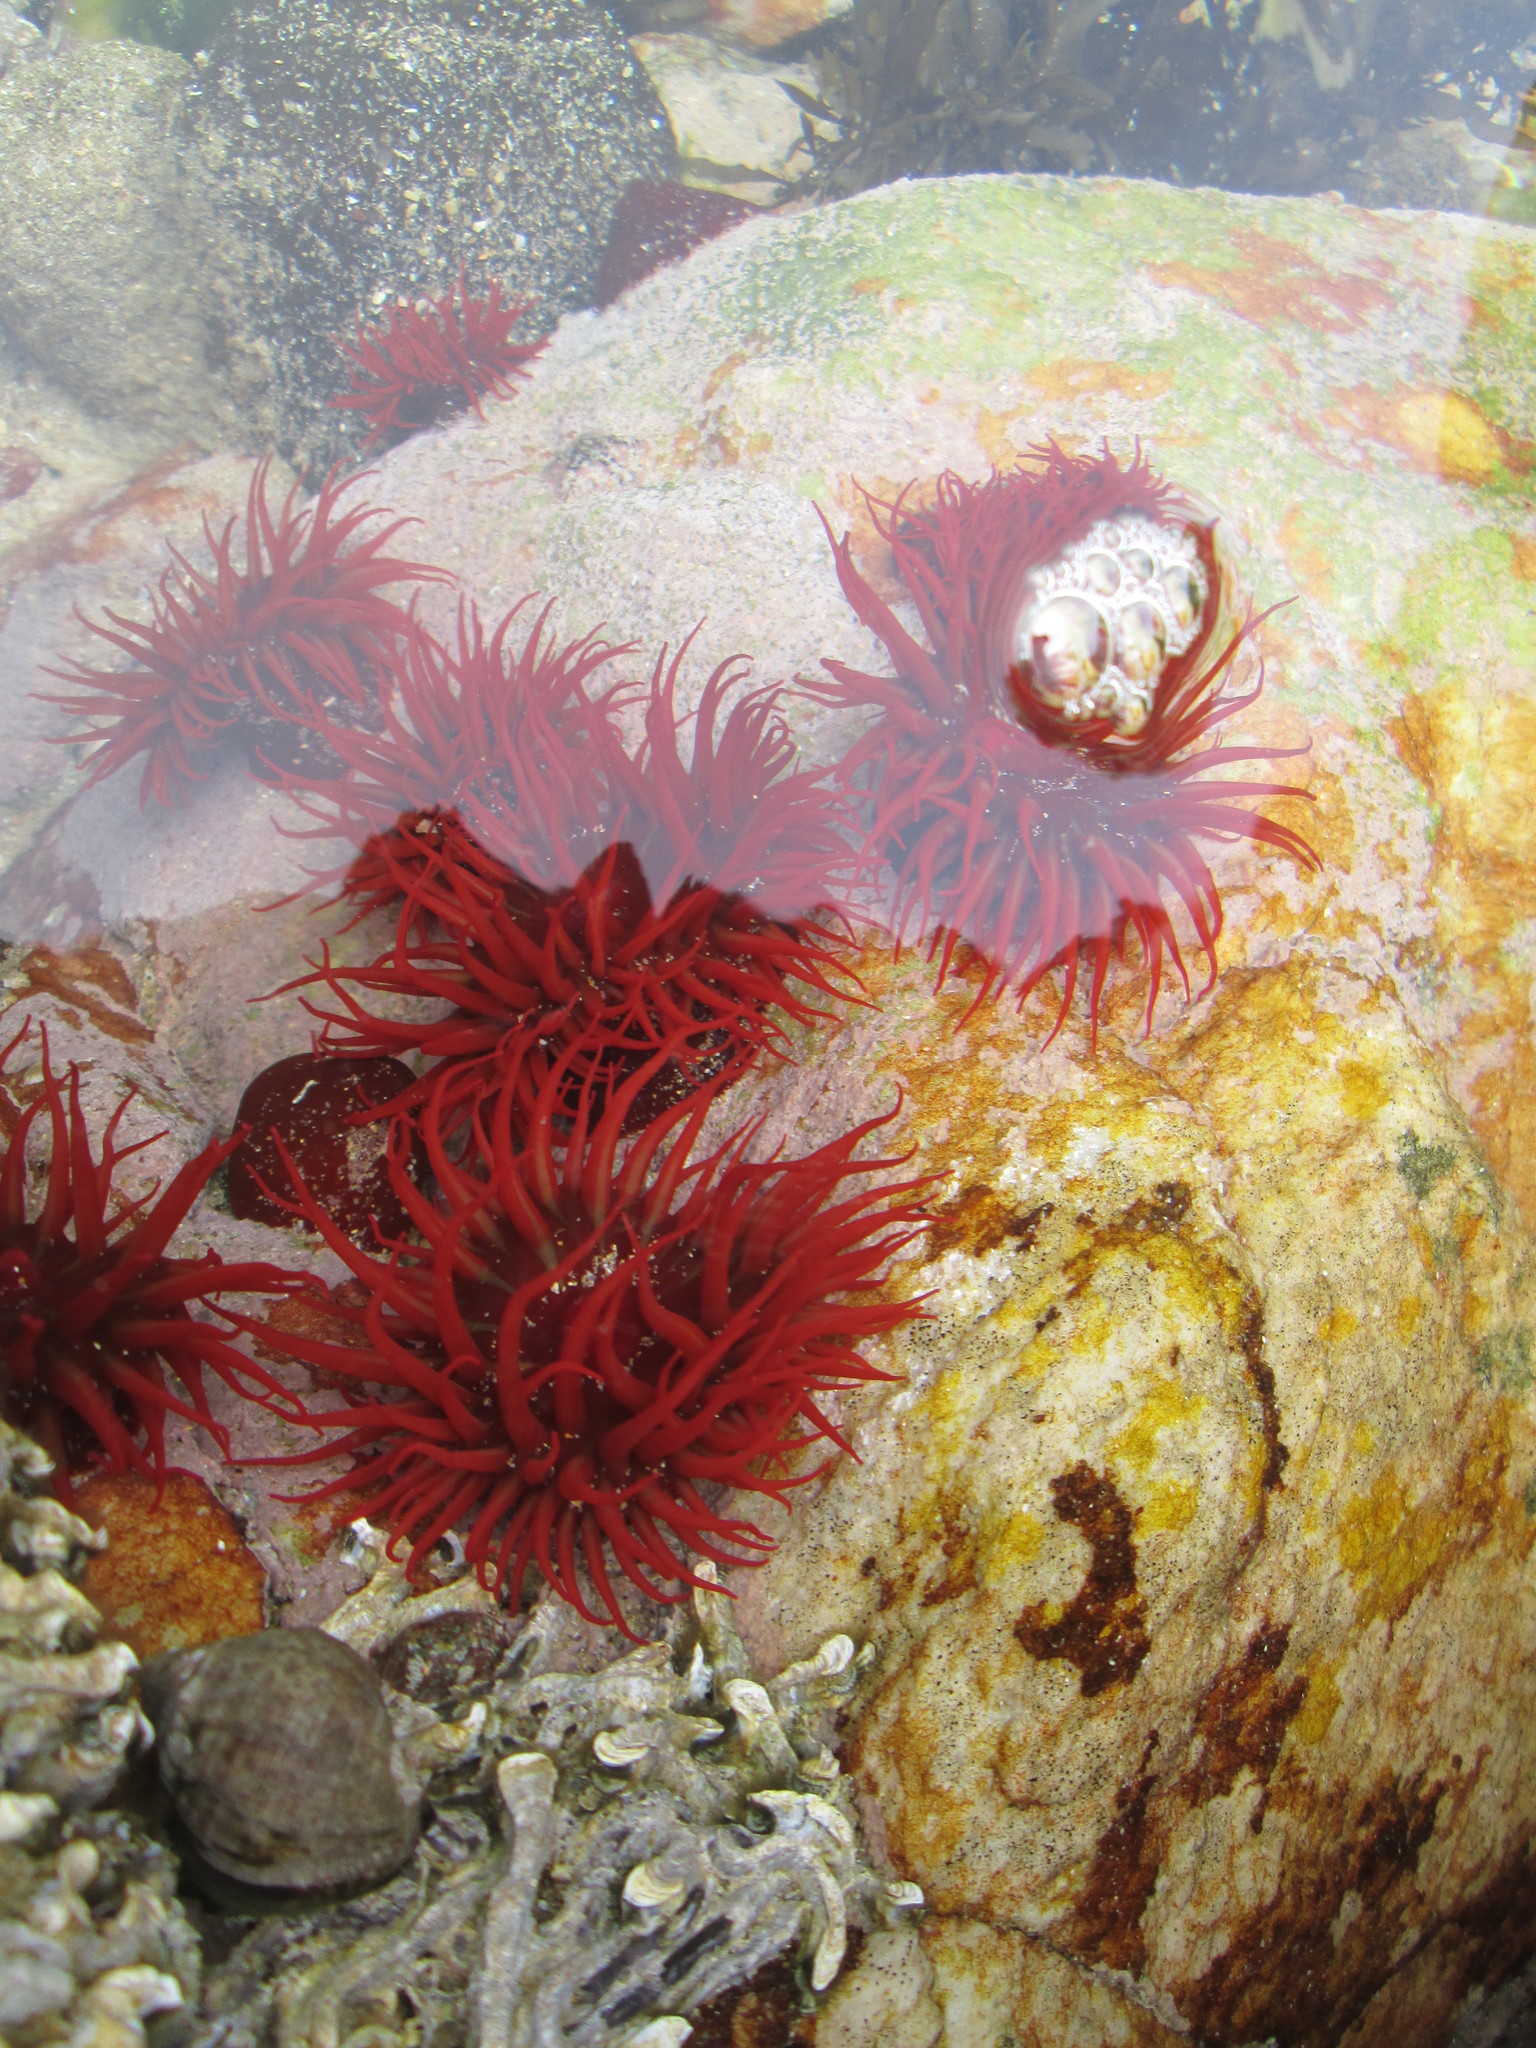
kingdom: Animalia
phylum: Cnidaria
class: Anthozoa
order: Actiniaria
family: Actiniidae
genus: Actinia
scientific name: Actinia ebhayiensis
